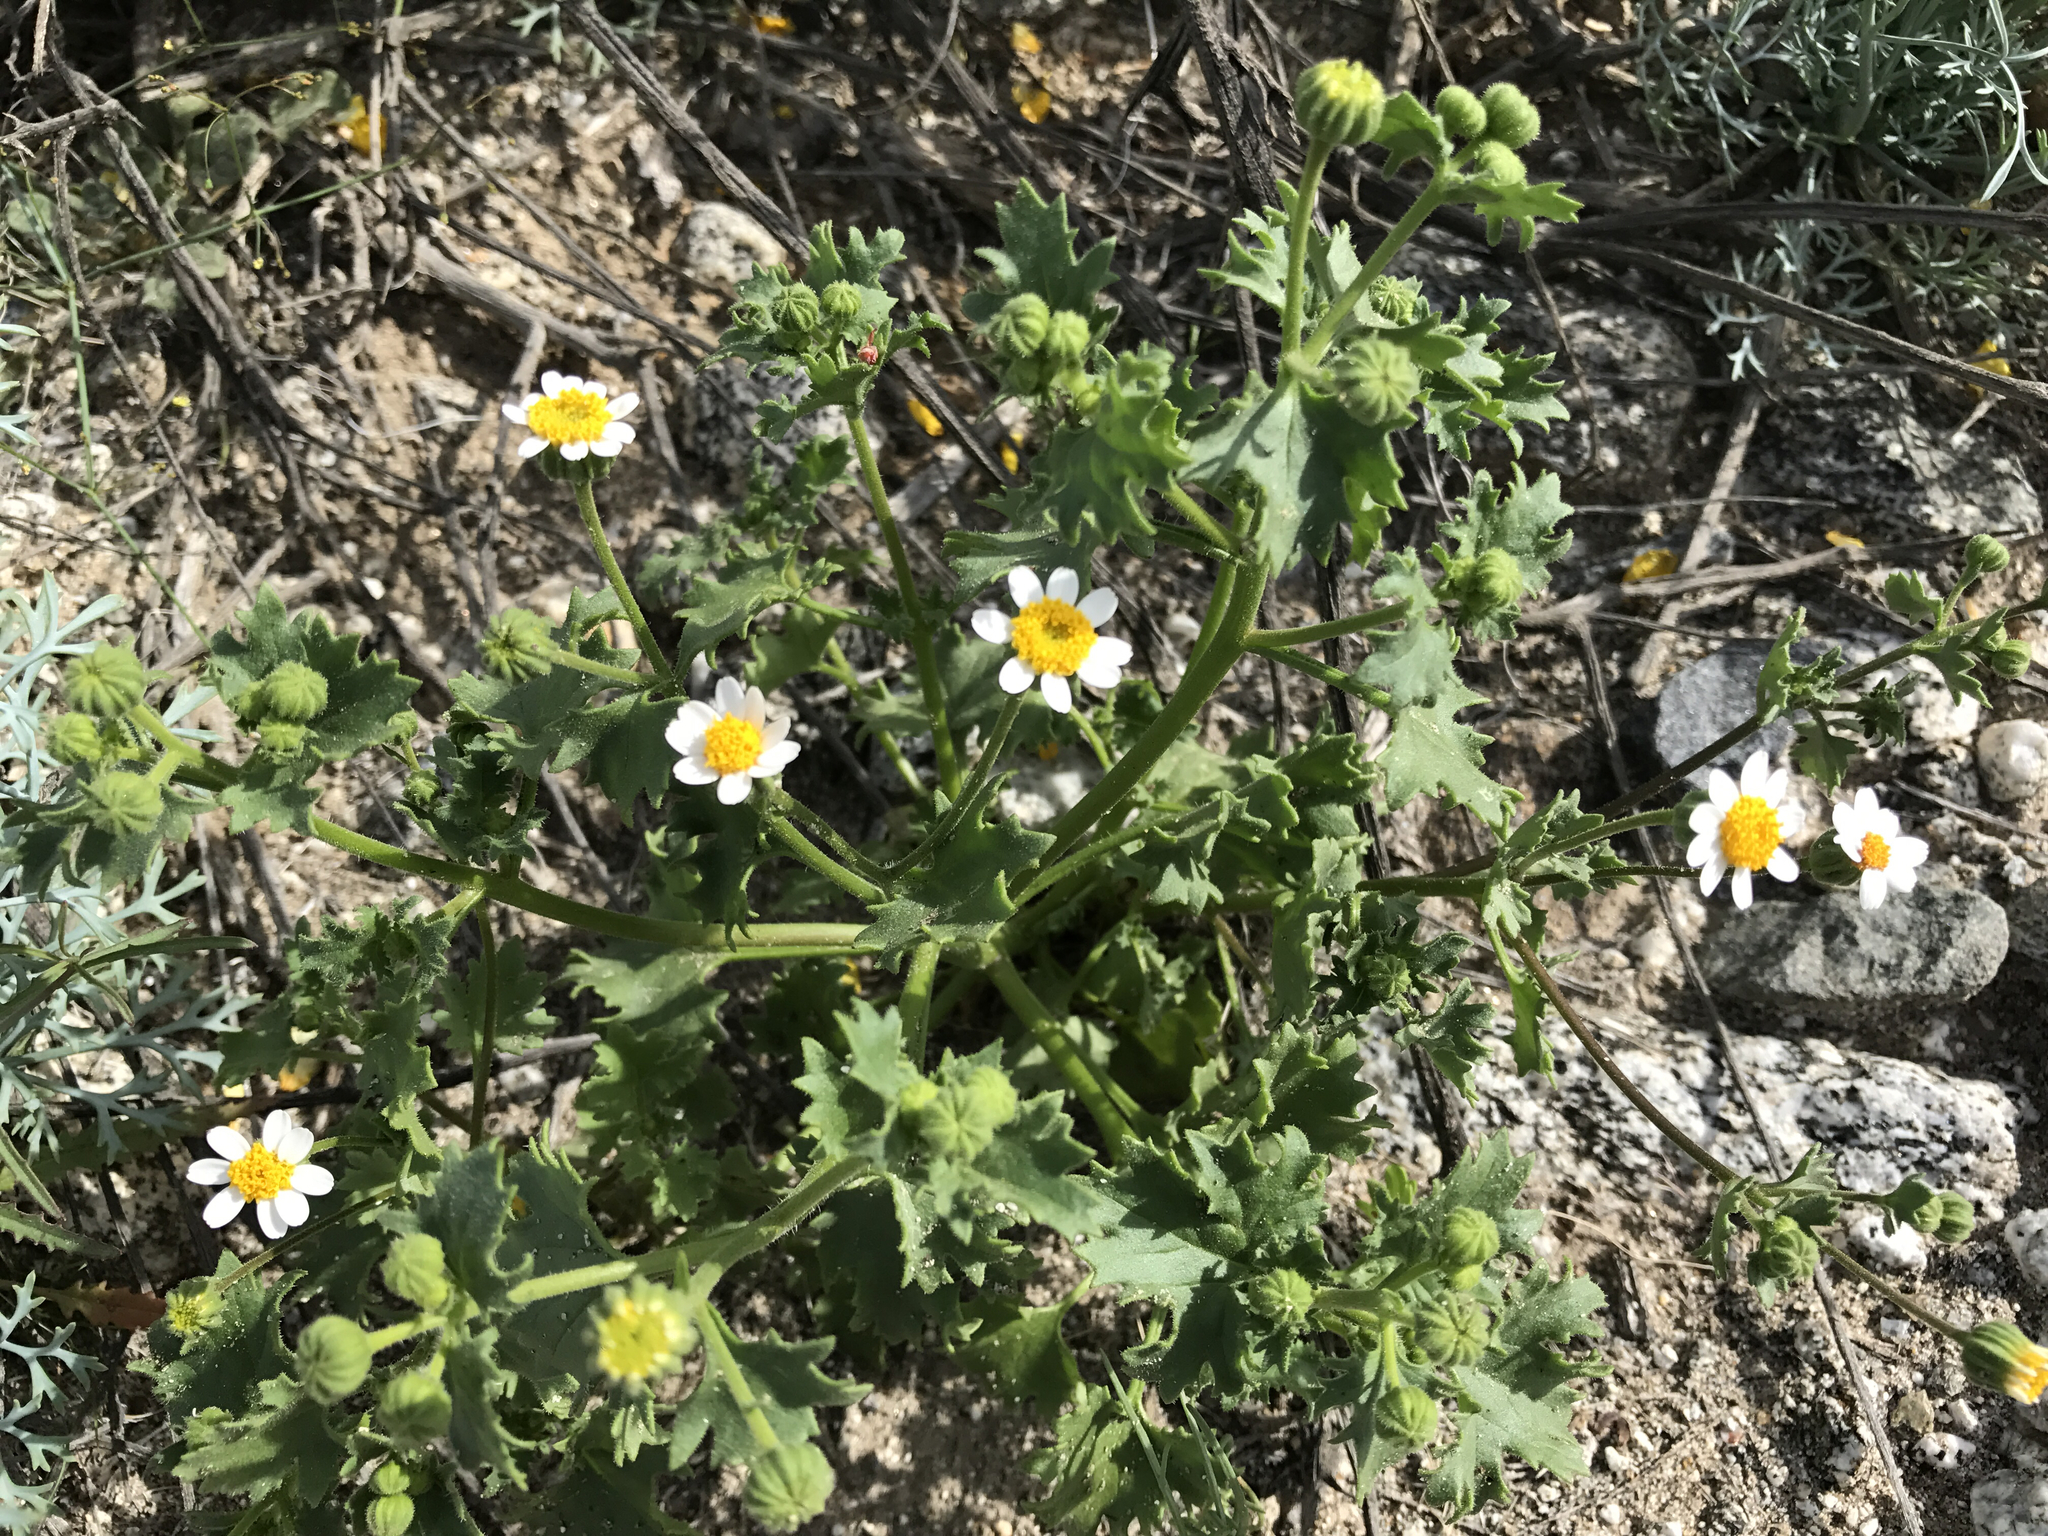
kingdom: Plantae
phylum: Tracheophyta
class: Magnoliopsida
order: Asterales
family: Asteraceae
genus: Laphamia
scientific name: Laphamia emoryi
